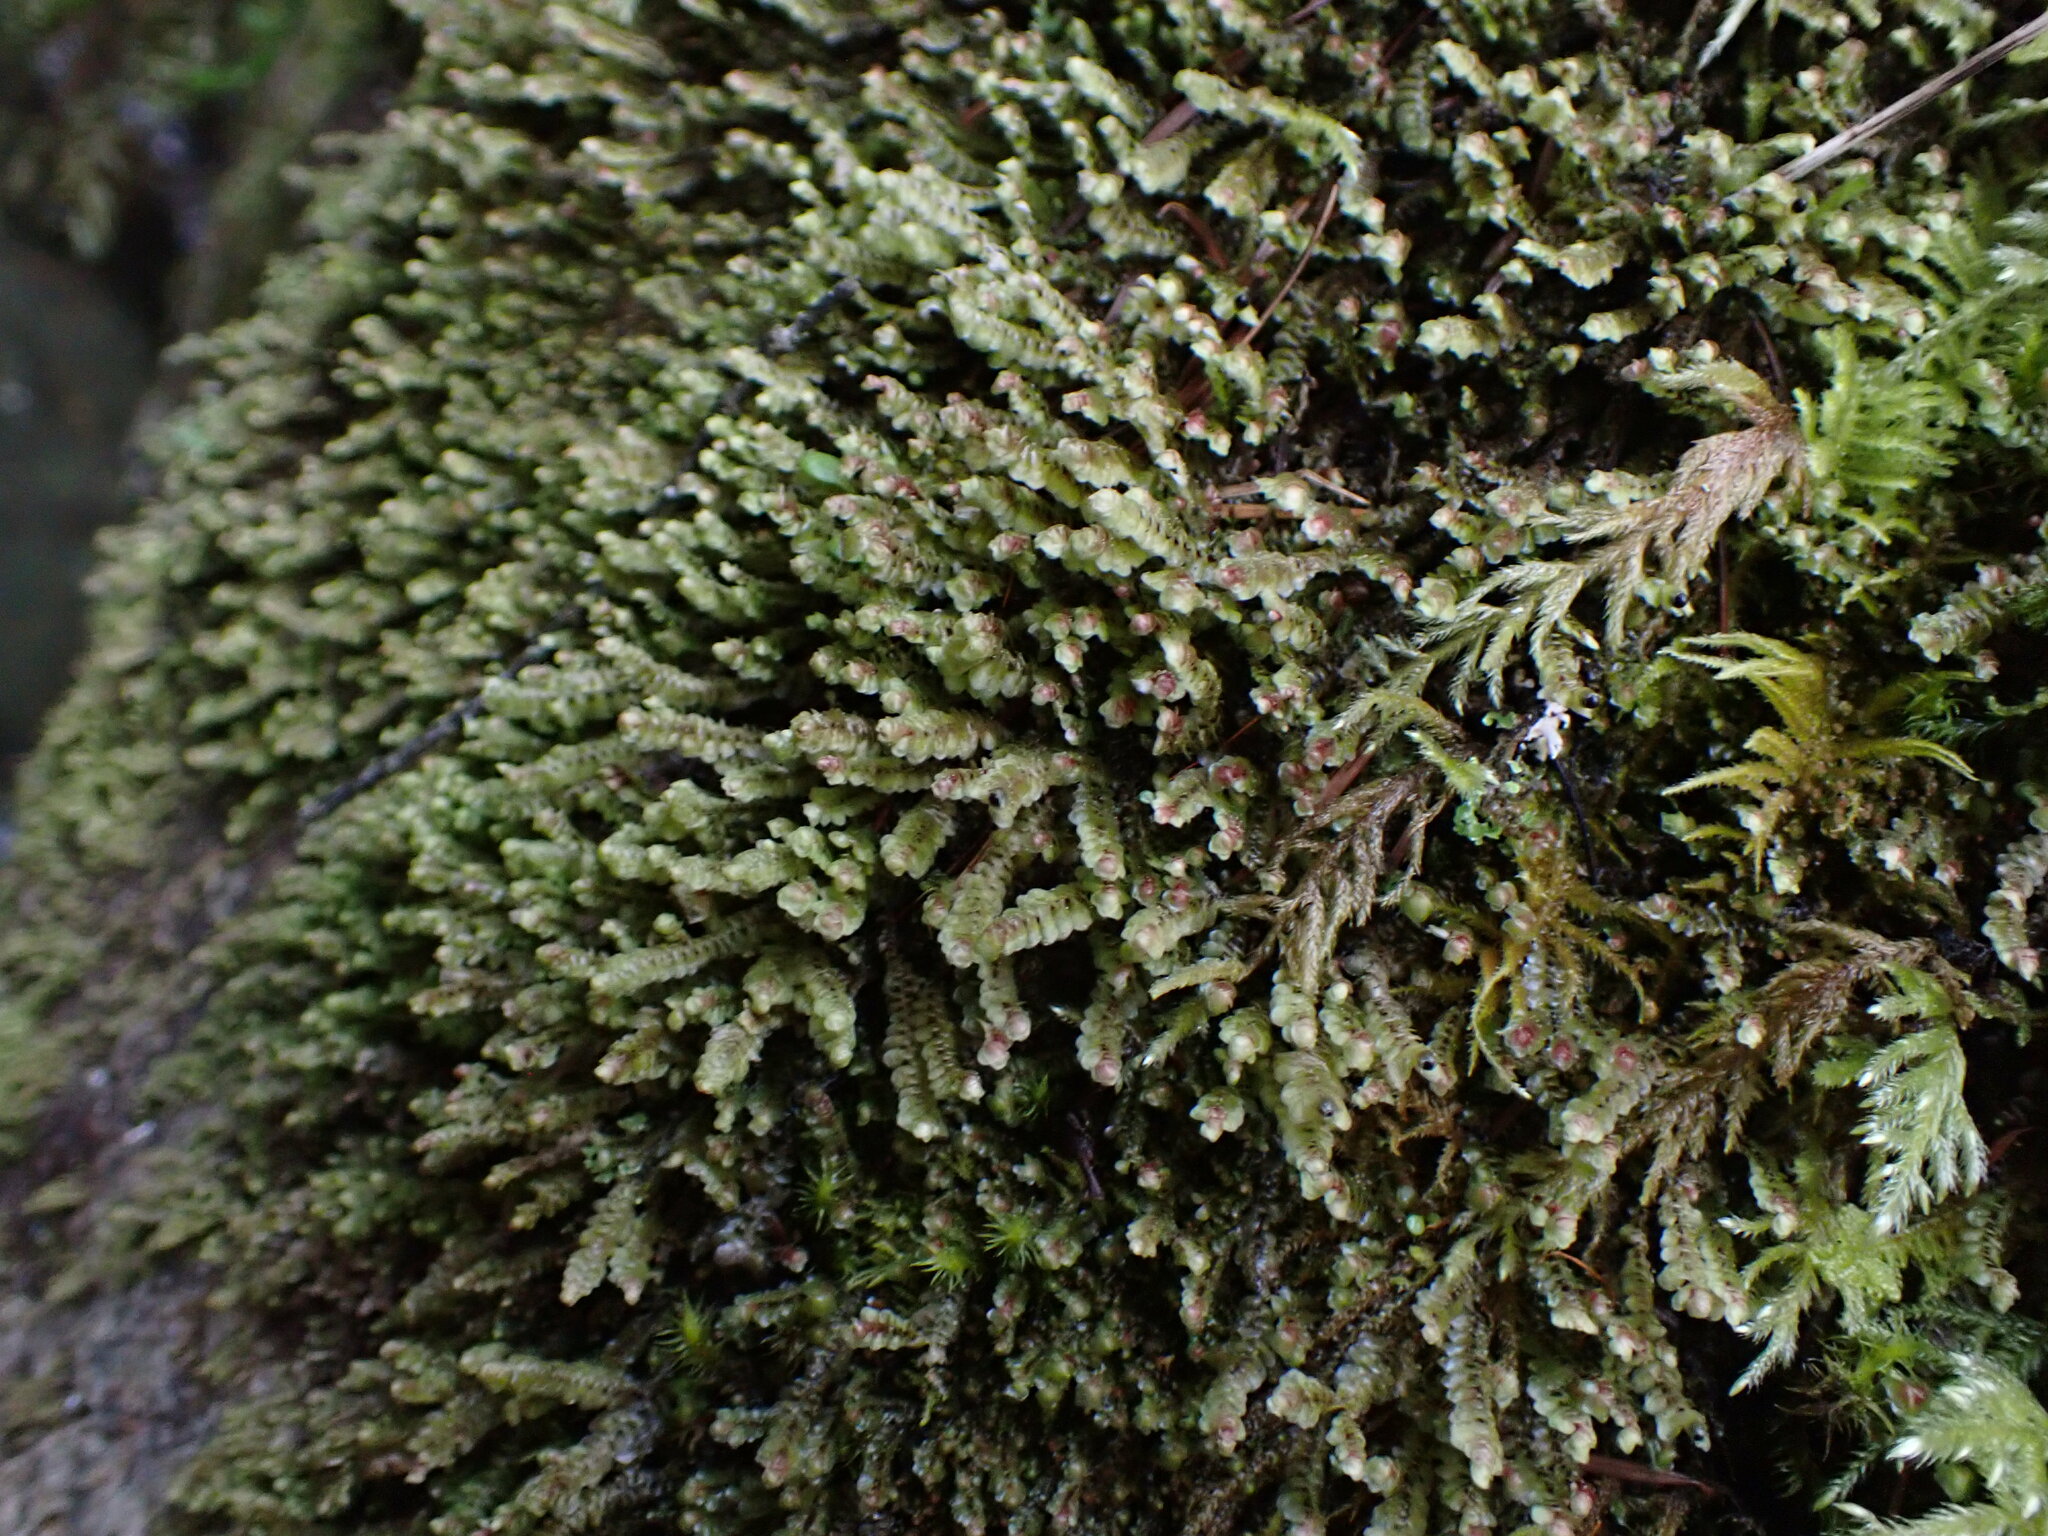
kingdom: Plantae
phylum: Marchantiophyta
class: Jungermanniopsida
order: Jungermanniales
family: Scapaniaceae
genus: Scapania
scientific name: Scapania americana
